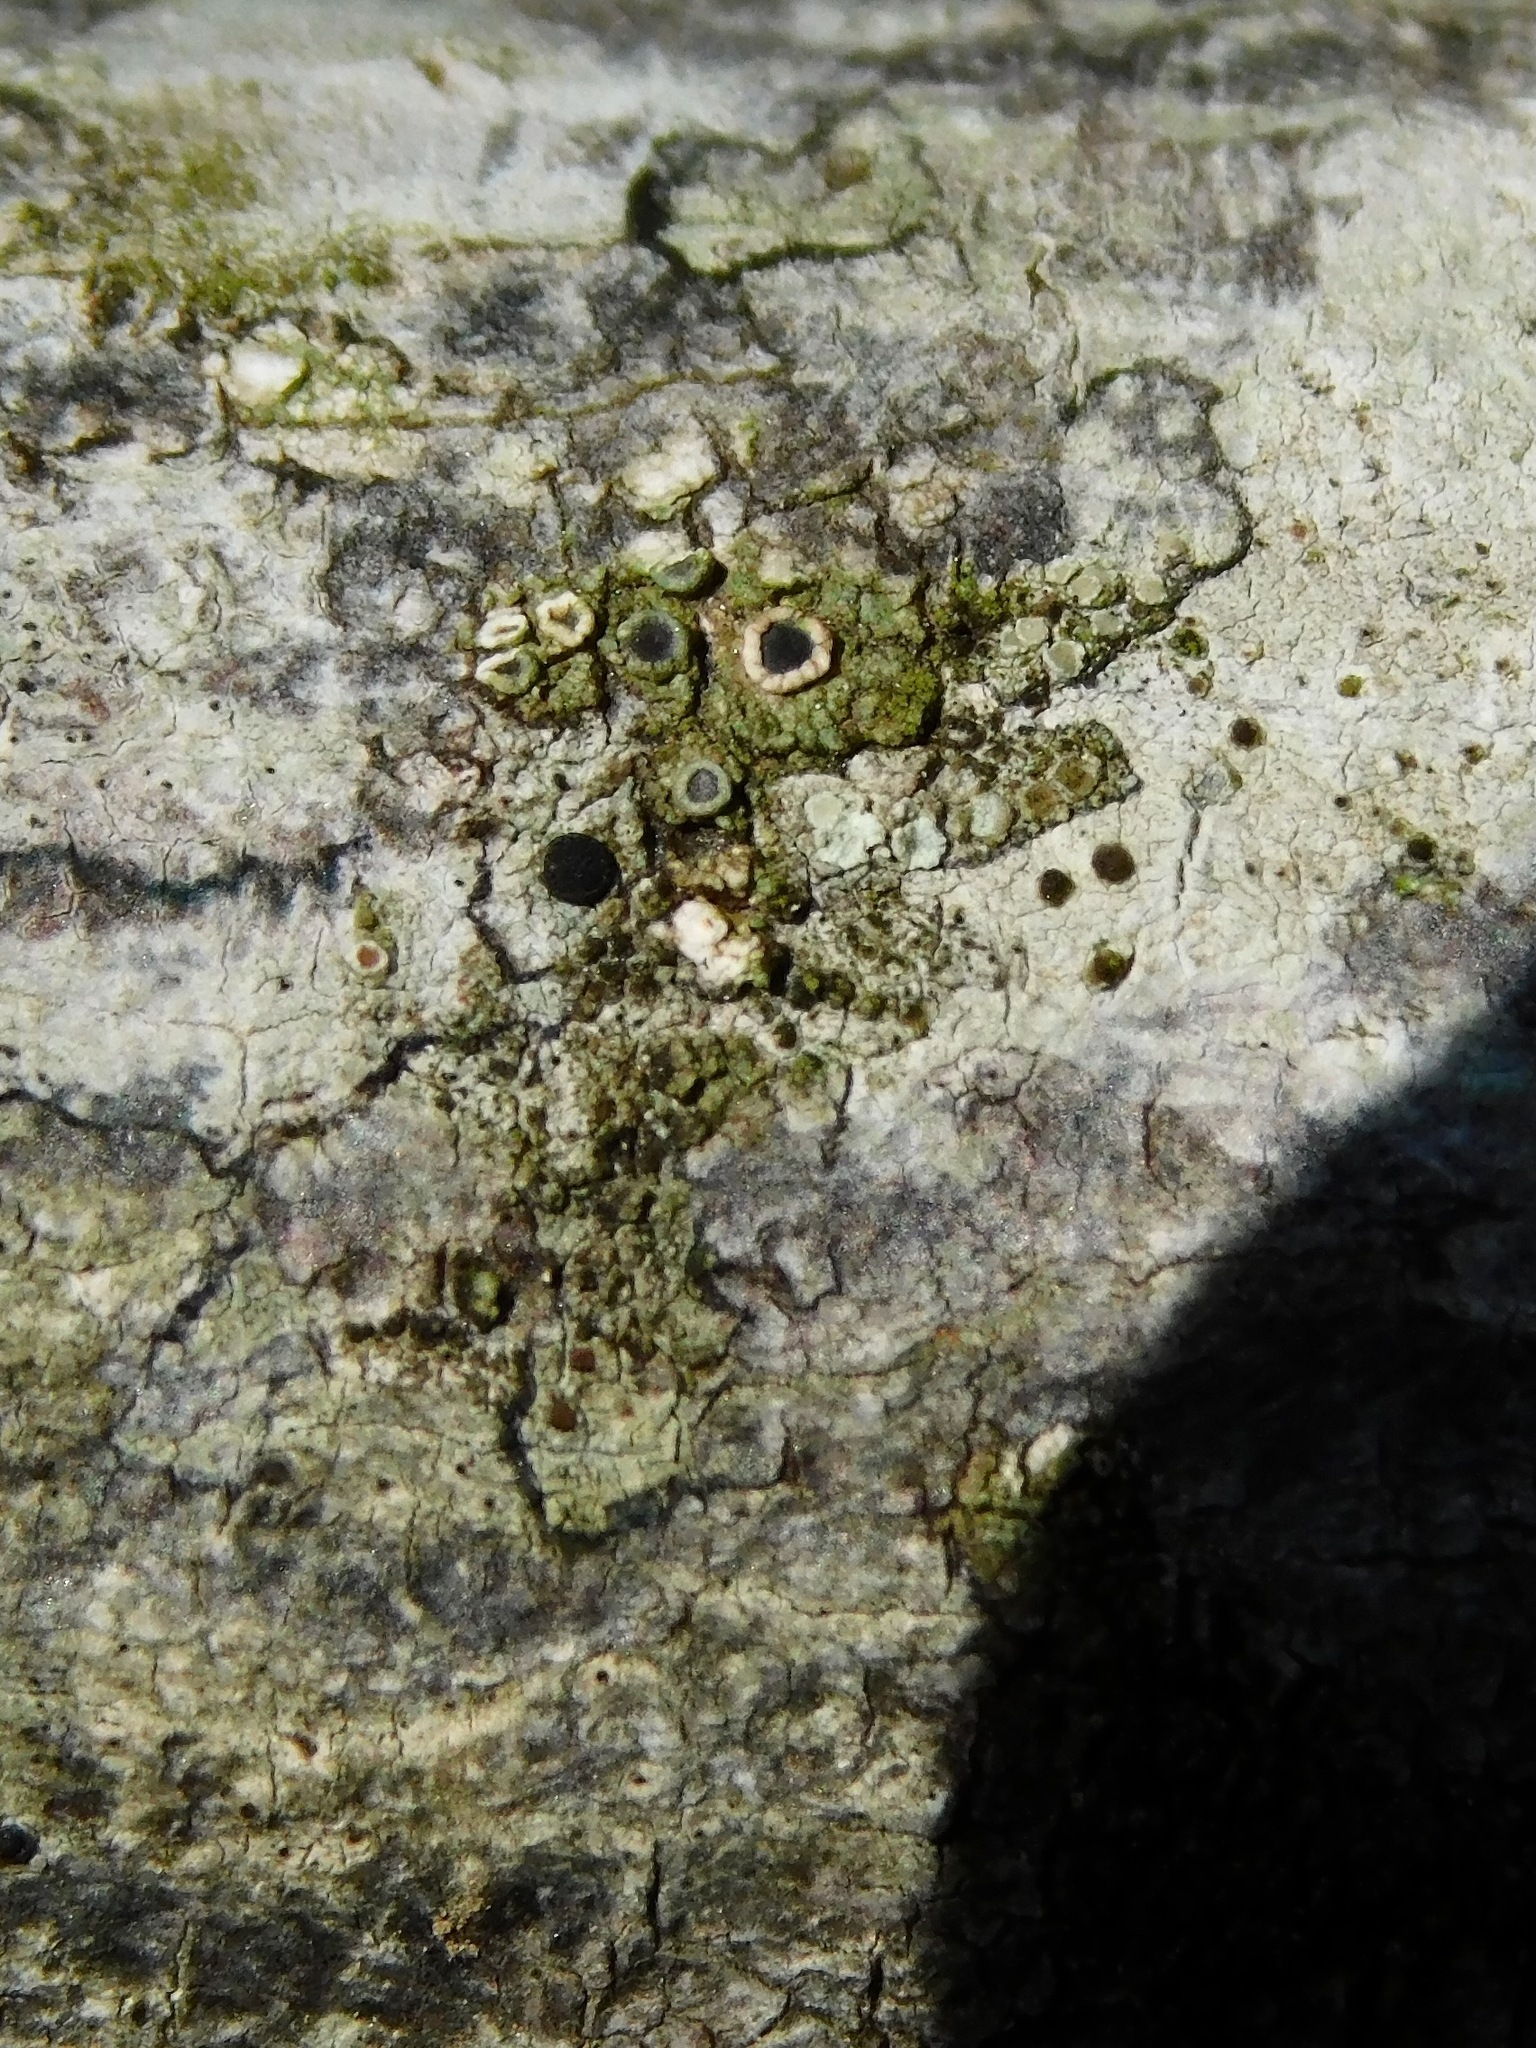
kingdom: Fungi
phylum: Ascomycota
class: Lecanoromycetes
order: Umbilicariales
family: Fuscideaceae
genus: Maronea
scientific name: Maronea polyphaea
